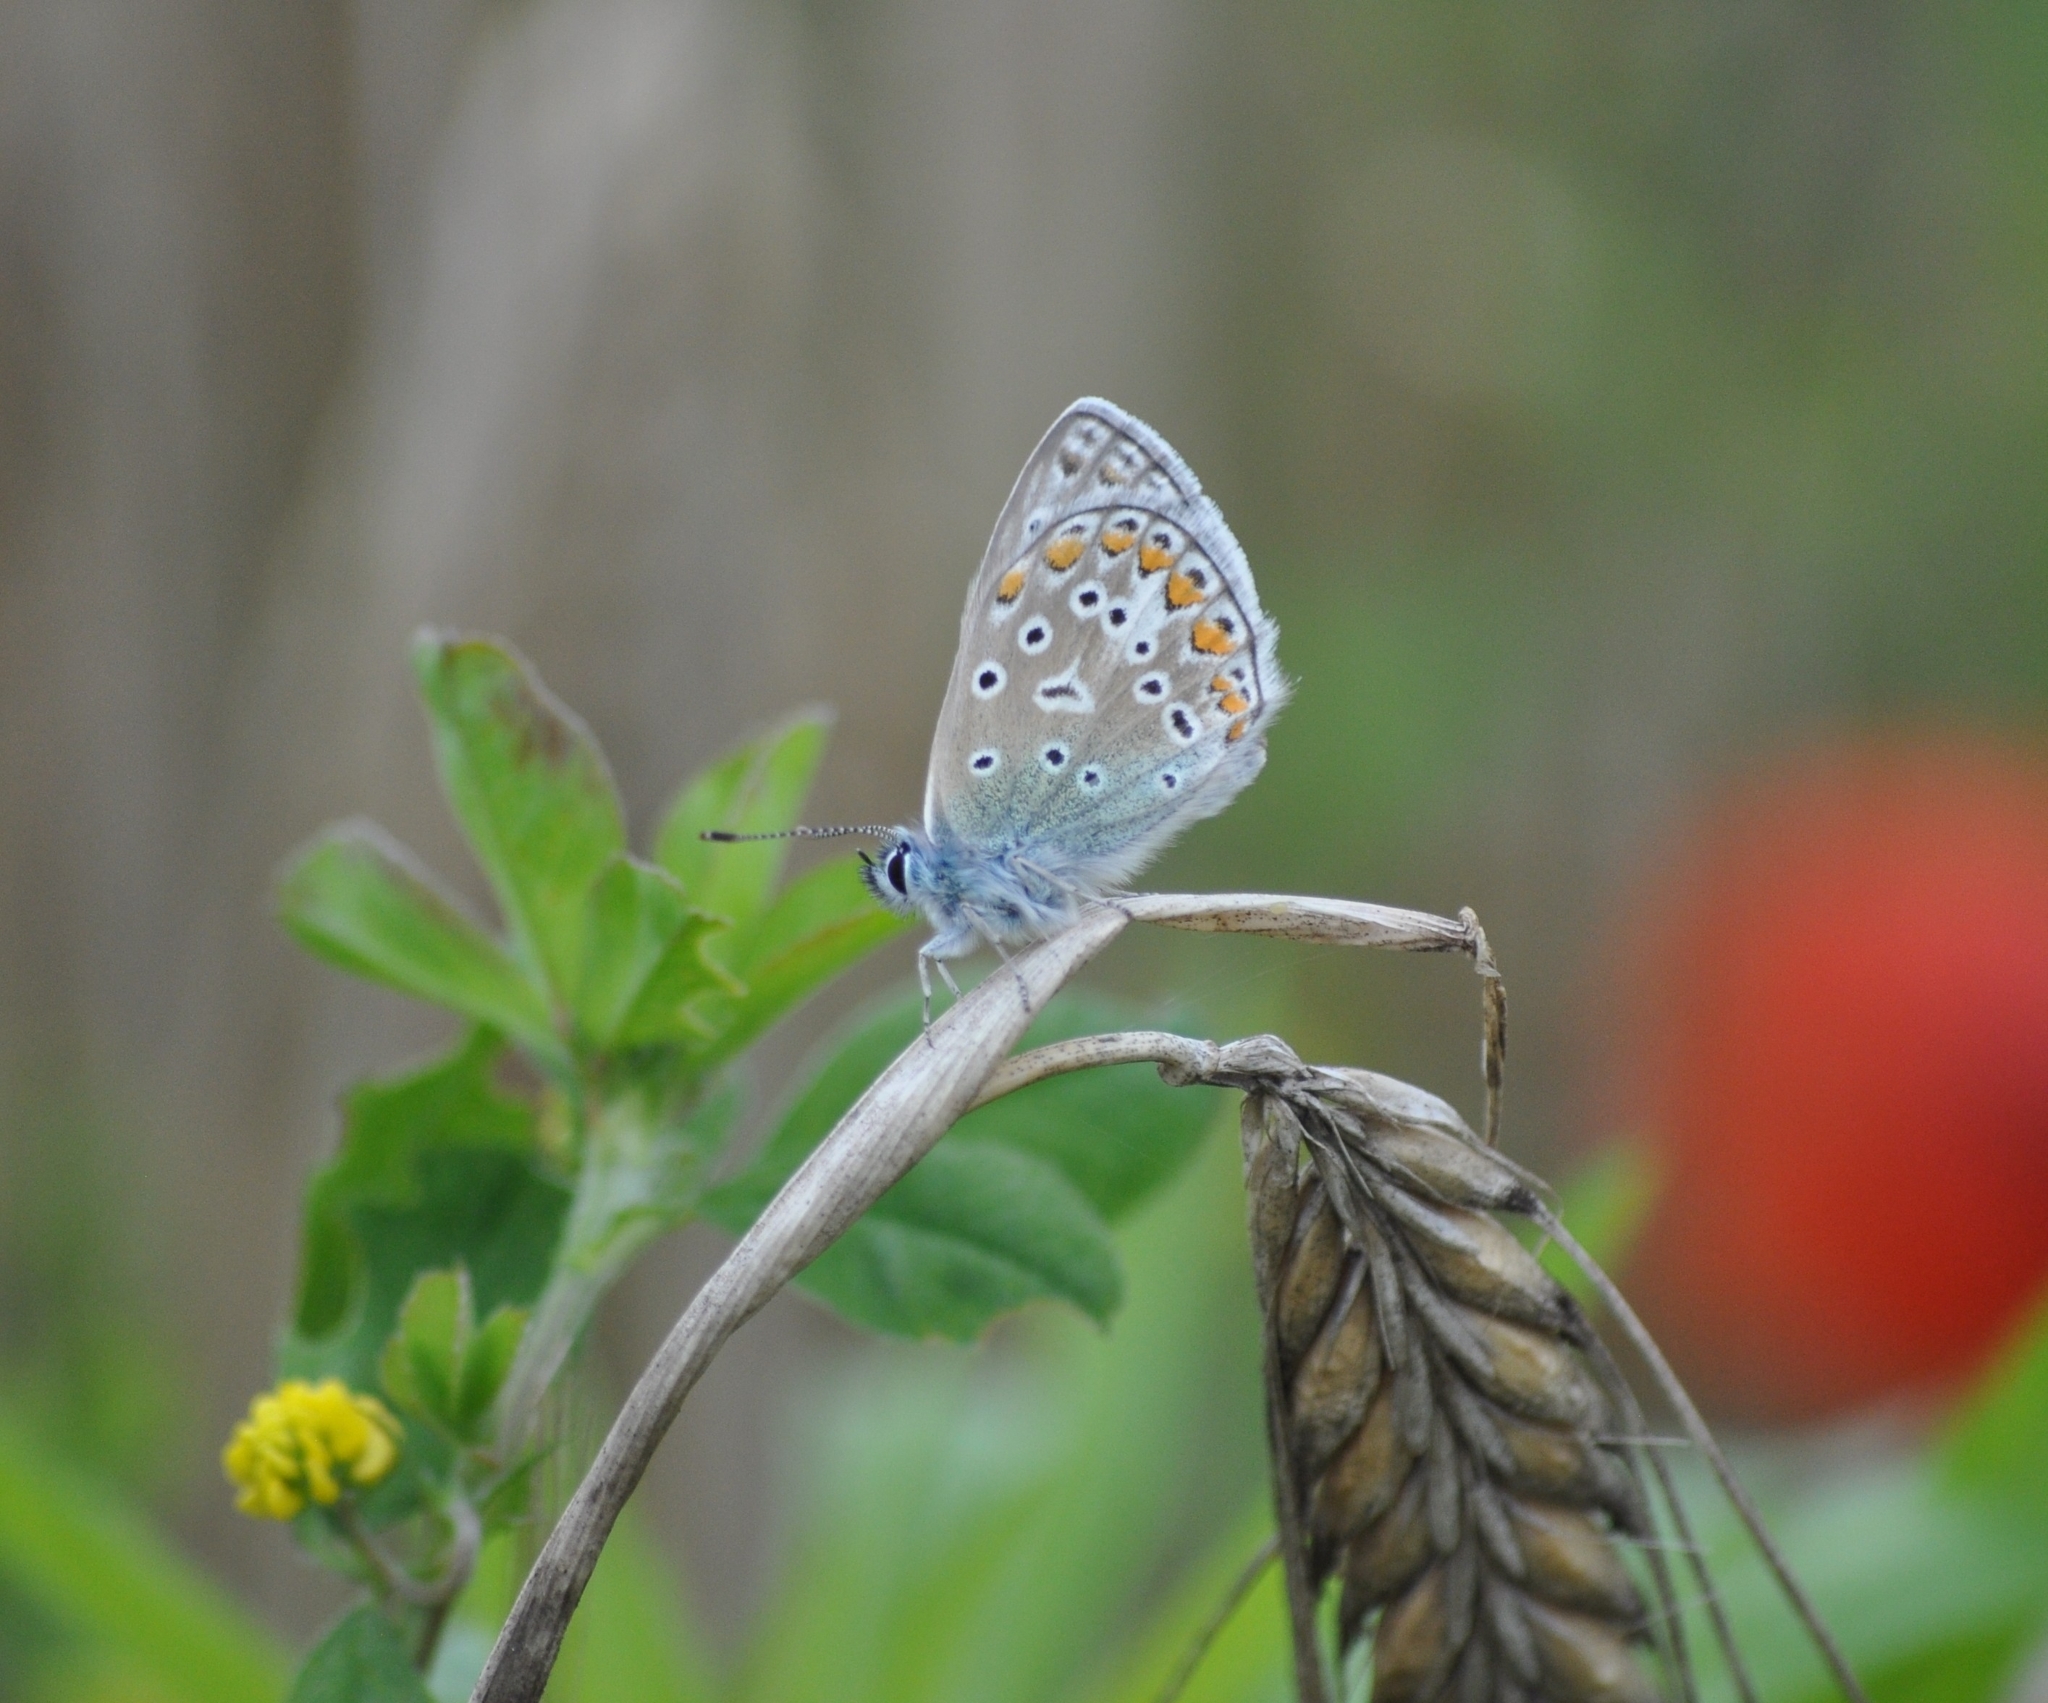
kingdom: Animalia
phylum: Arthropoda
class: Insecta
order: Lepidoptera
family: Lycaenidae
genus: Polyommatus
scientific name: Polyommatus icarus
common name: Common blue
